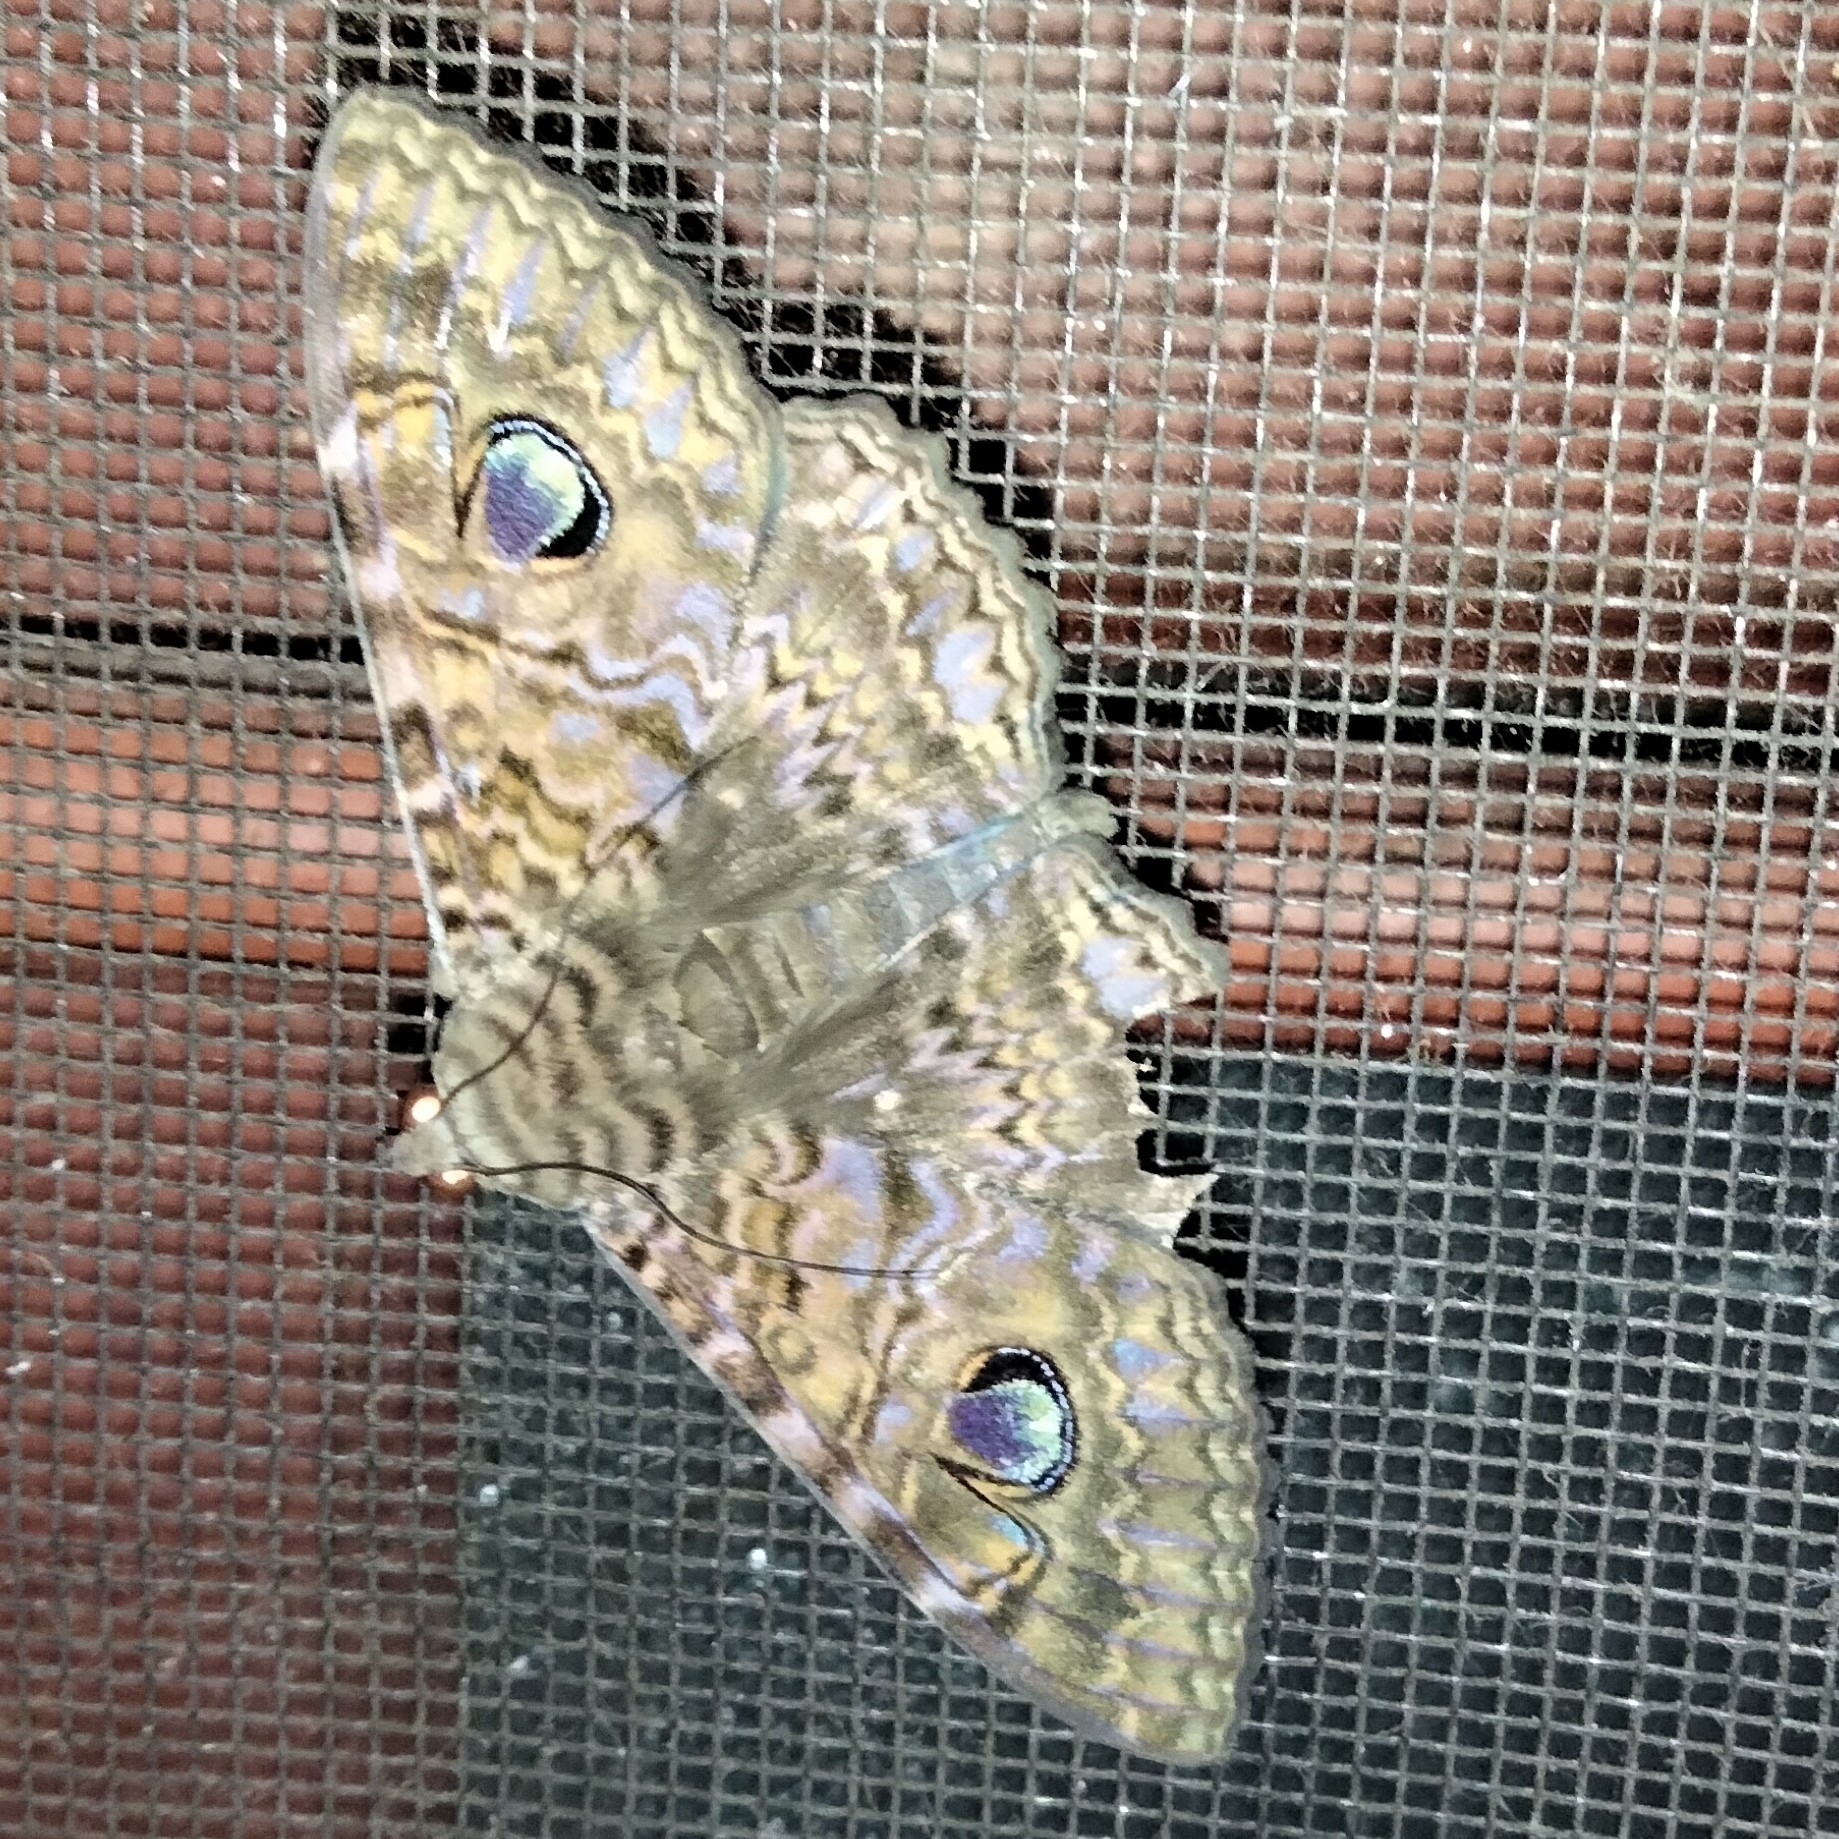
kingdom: Animalia
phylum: Arthropoda
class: Insecta
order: Lepidoptera
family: Erebidae
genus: Speiredonia
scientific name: Speiredonia obscura
